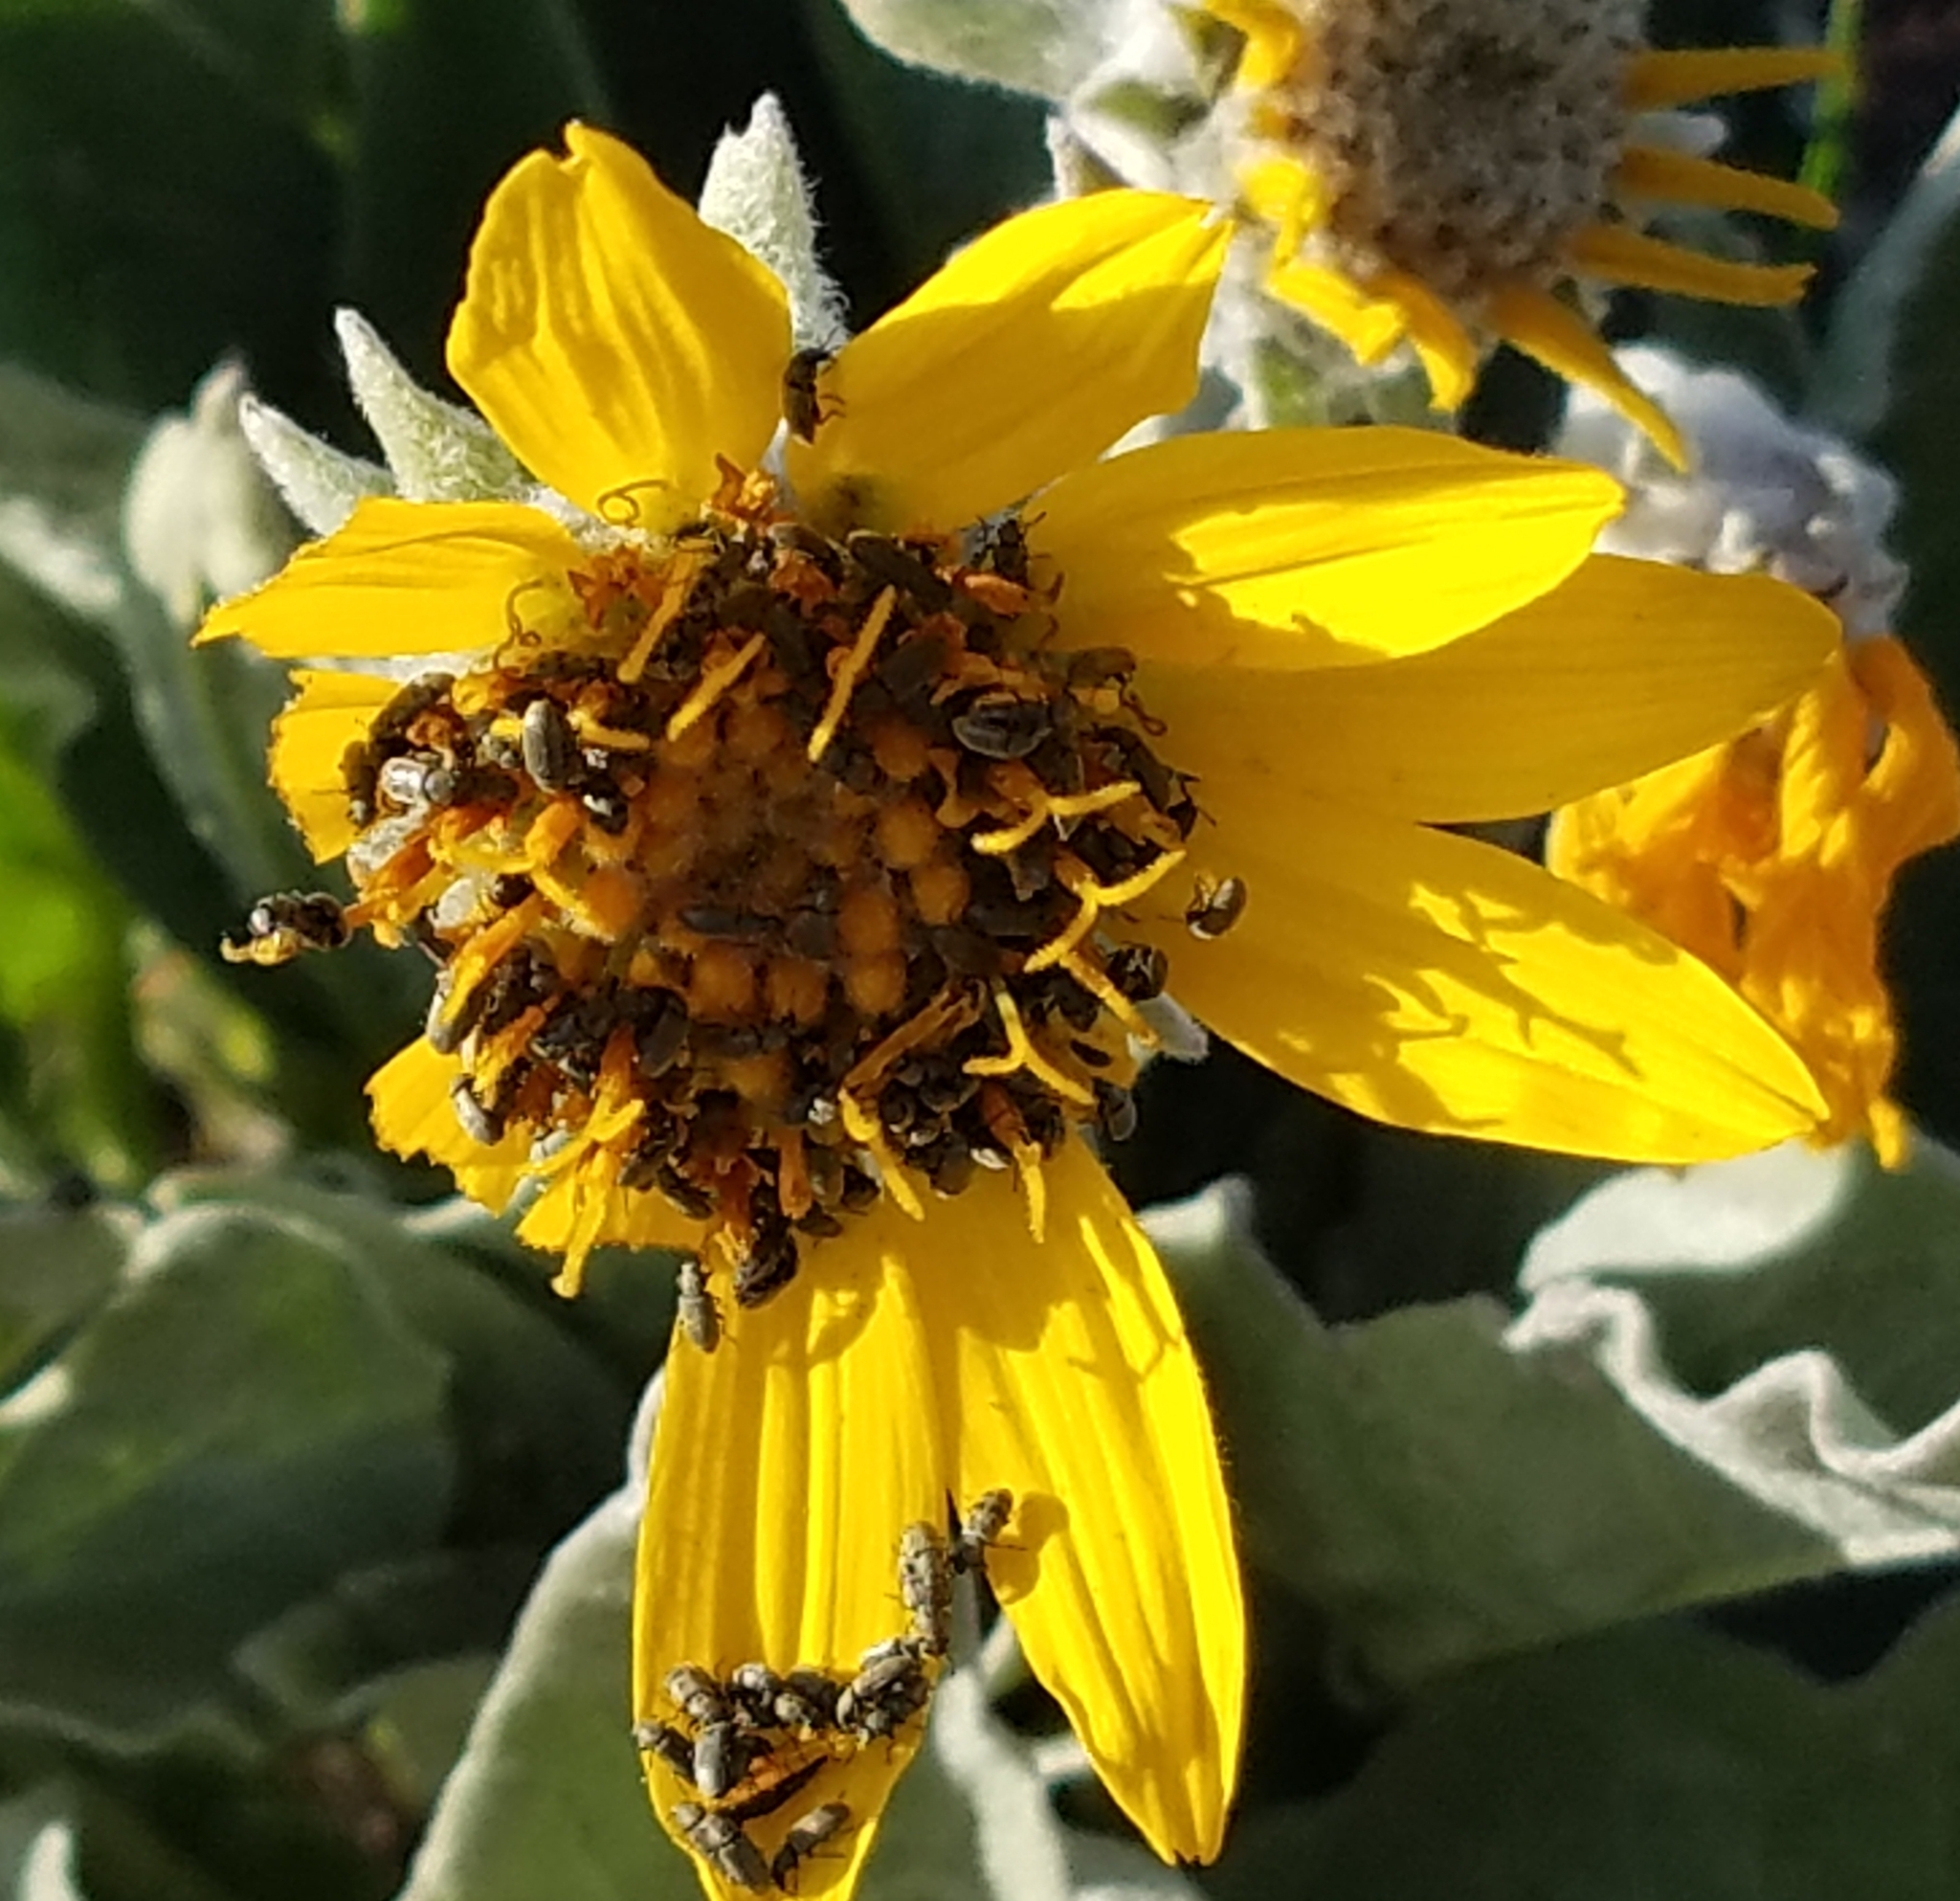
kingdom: Plantae
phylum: Tracheophyta
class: Magnoliopsida
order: Asterales
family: Asteraceae
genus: Wyethia
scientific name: Wyethia sagittata
